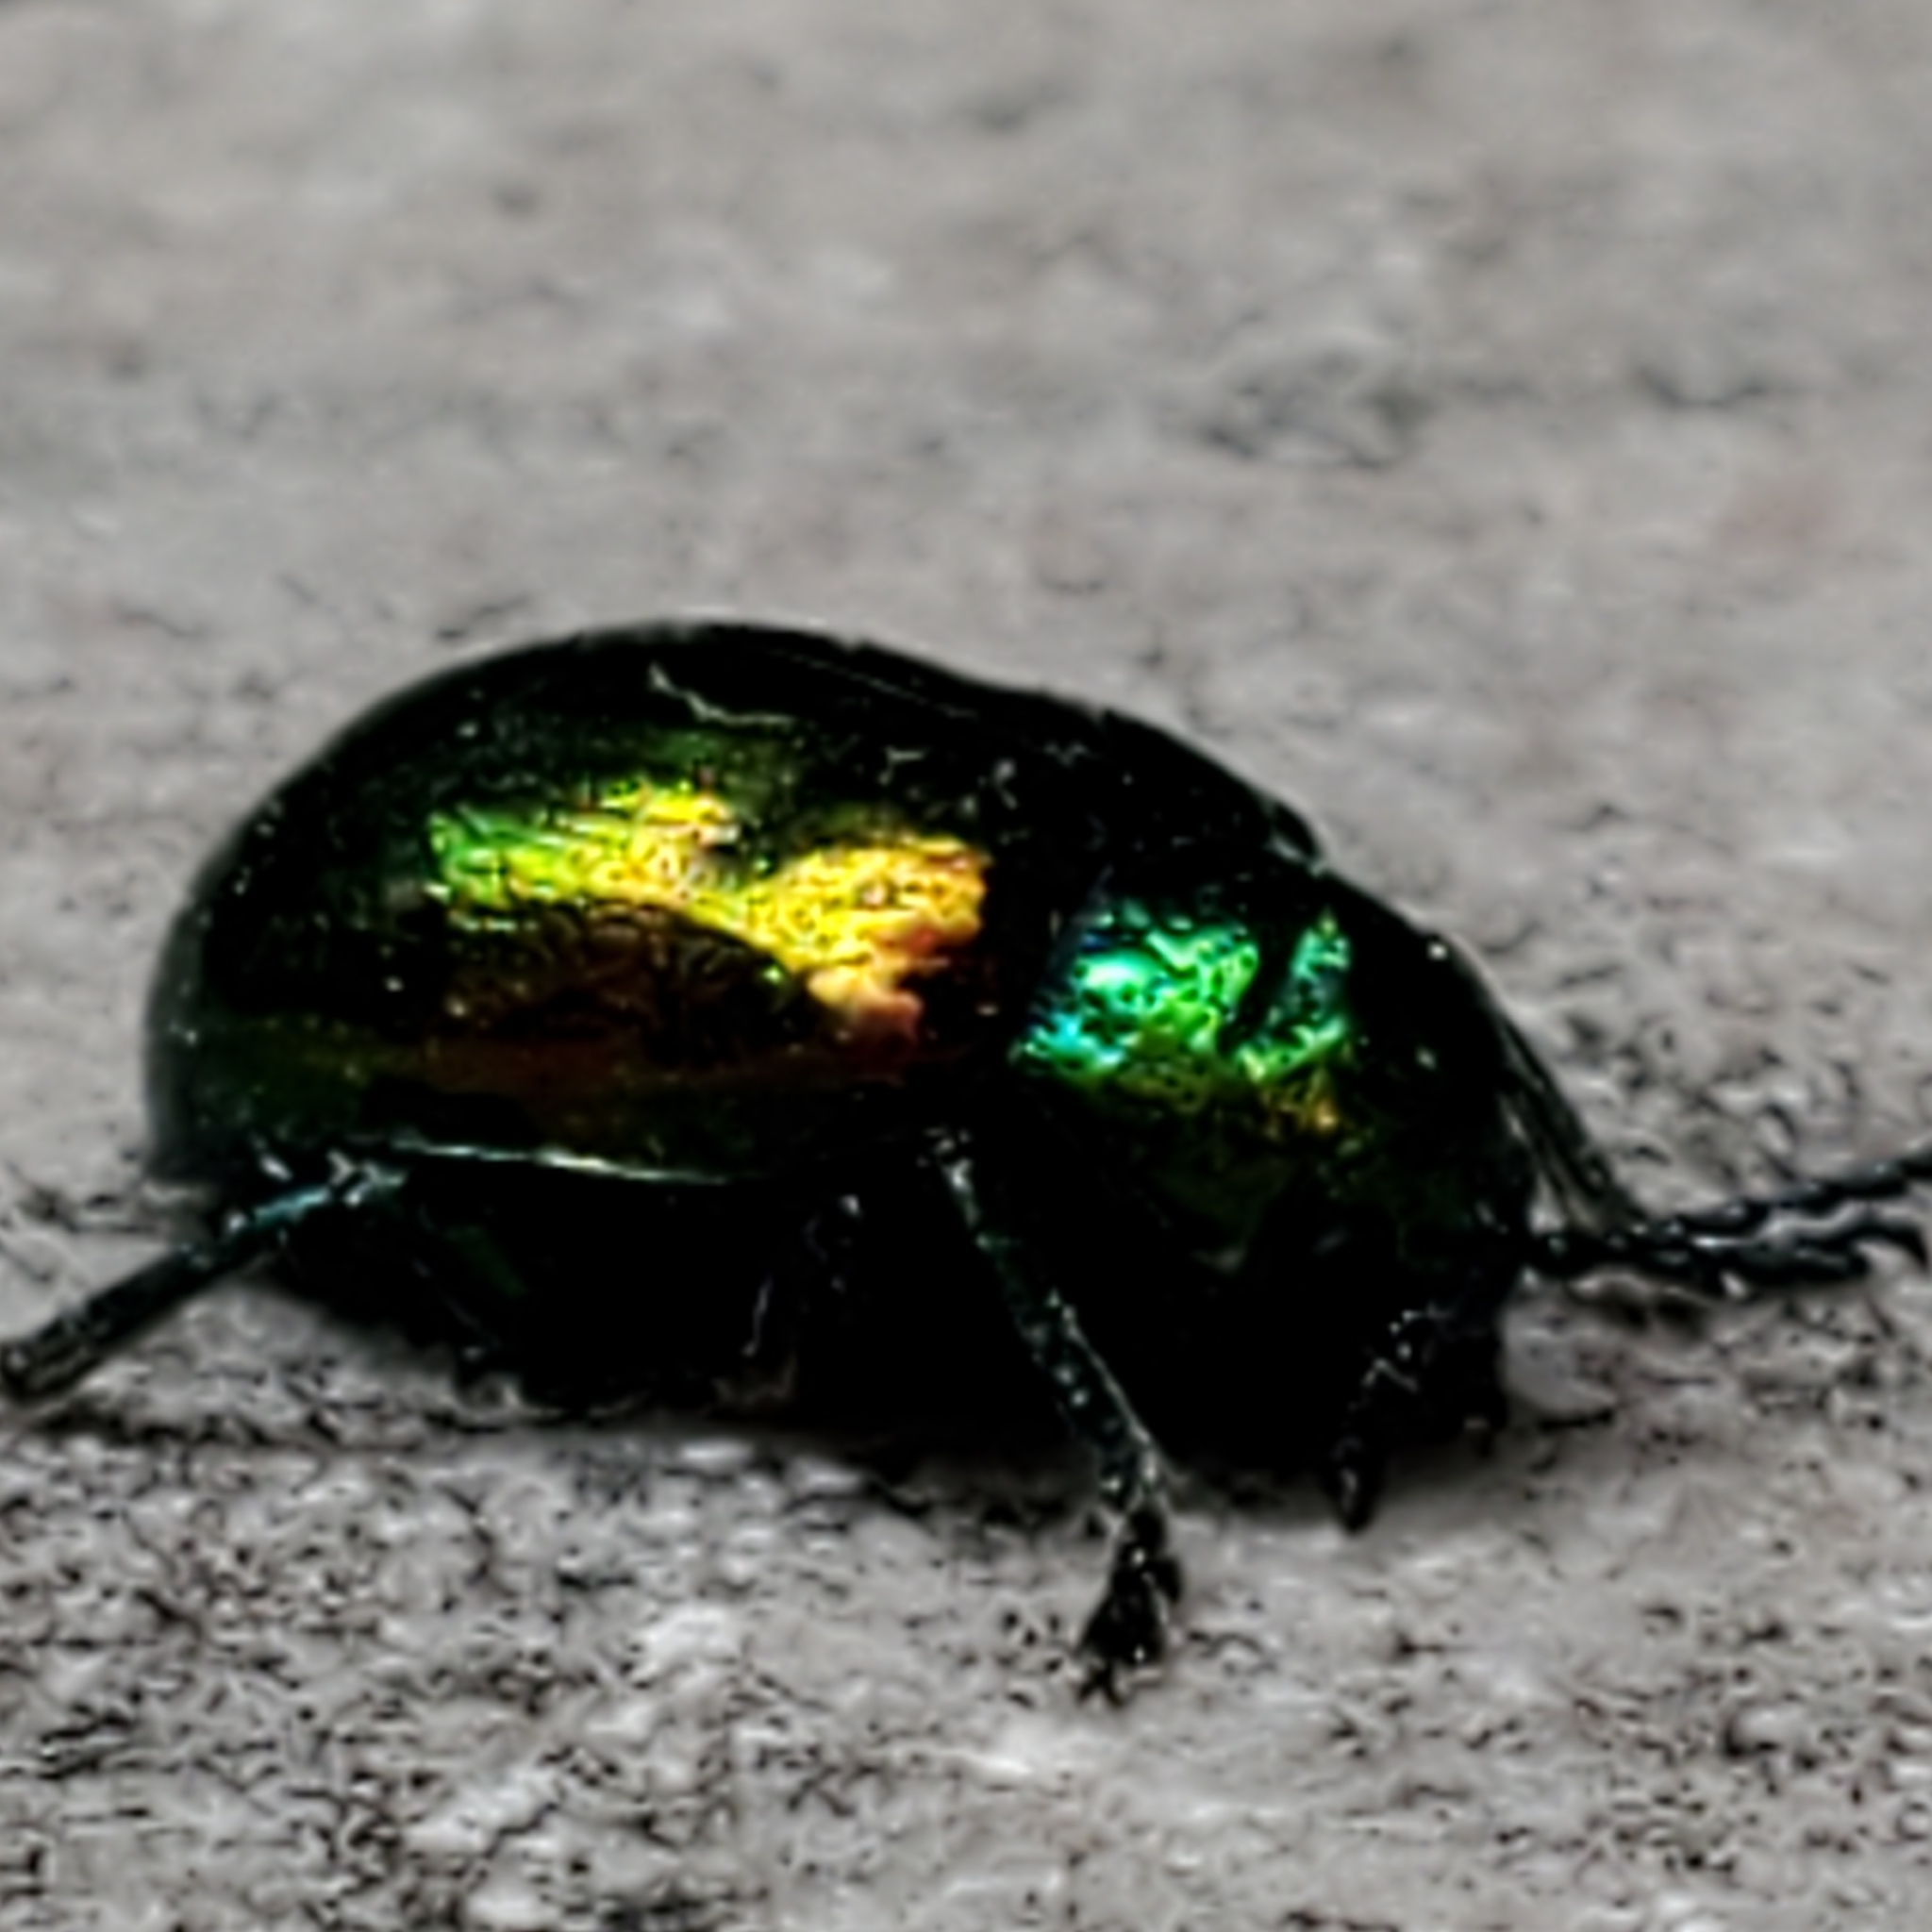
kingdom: Animalia
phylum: Arthropoda
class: Insecta
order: Coleoptera
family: Chrysomelidae
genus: Chrysochus
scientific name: Chrysochus auratus
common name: Dogbane leaf beetle
